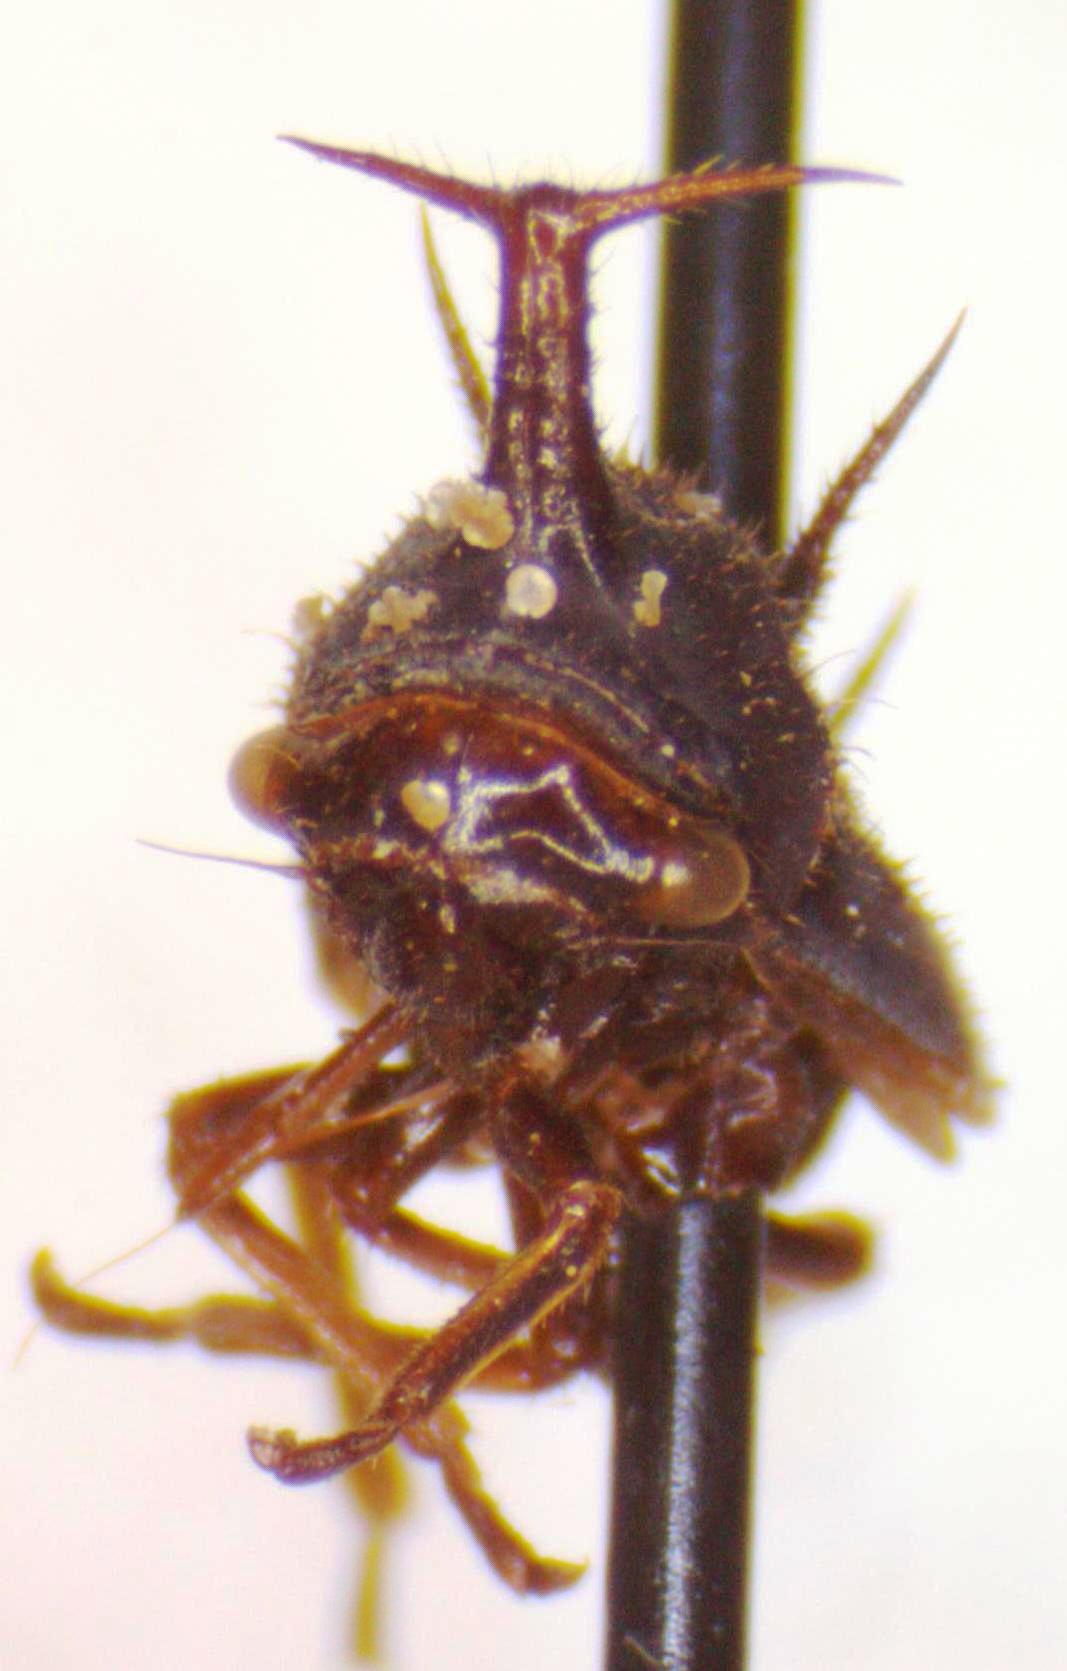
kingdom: Animalia
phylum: Arthropoda
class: Insecta
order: Hemiptera
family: Membracidae
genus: Guayaquila
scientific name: Guayaquila gracilicornis
